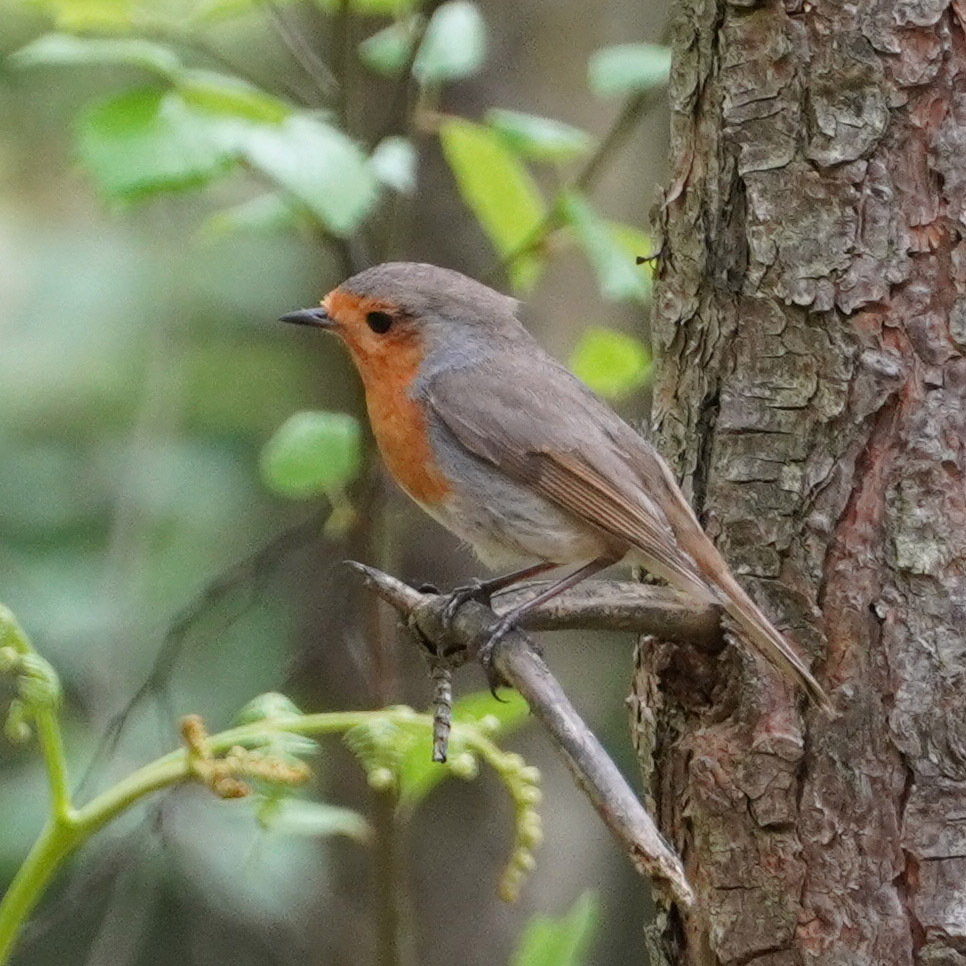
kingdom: Animalia
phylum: Chordata
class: Aves
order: Passeriformes
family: Muscicapidae
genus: Erithacus
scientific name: Erithacus rubecula
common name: European robin
